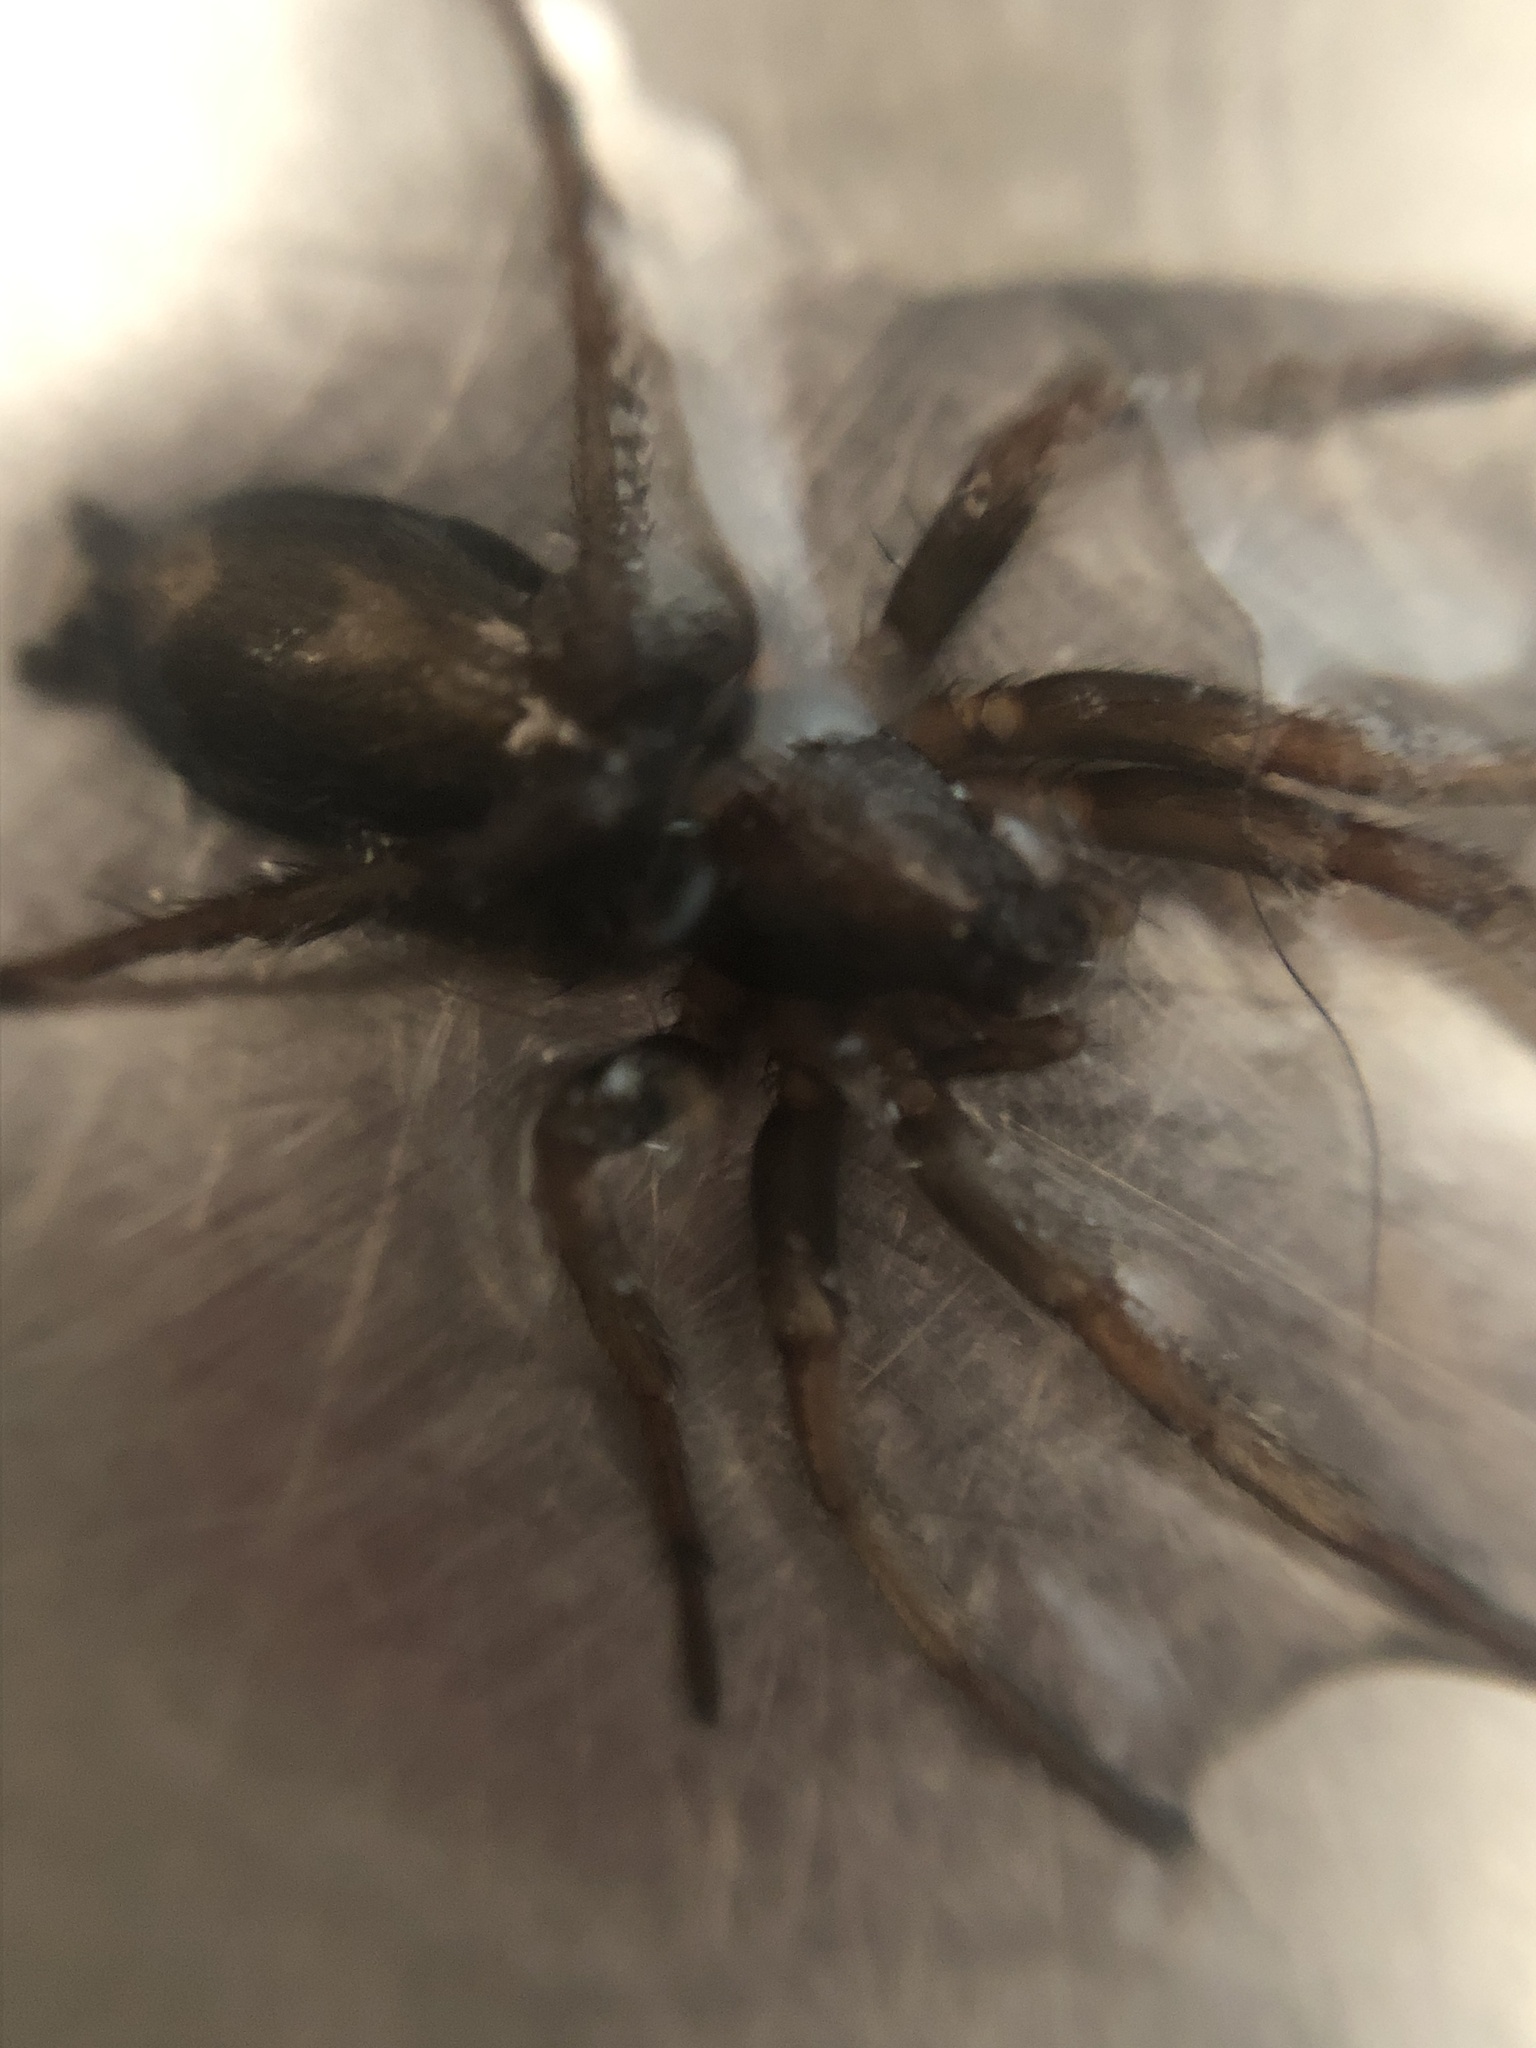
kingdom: Animalia
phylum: Arthropoda
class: Arachnida
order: Araneae
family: Gnaphosidae
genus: Herpyllus
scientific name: Herpyllus ecclesiasticus
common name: Eastern parson spider
